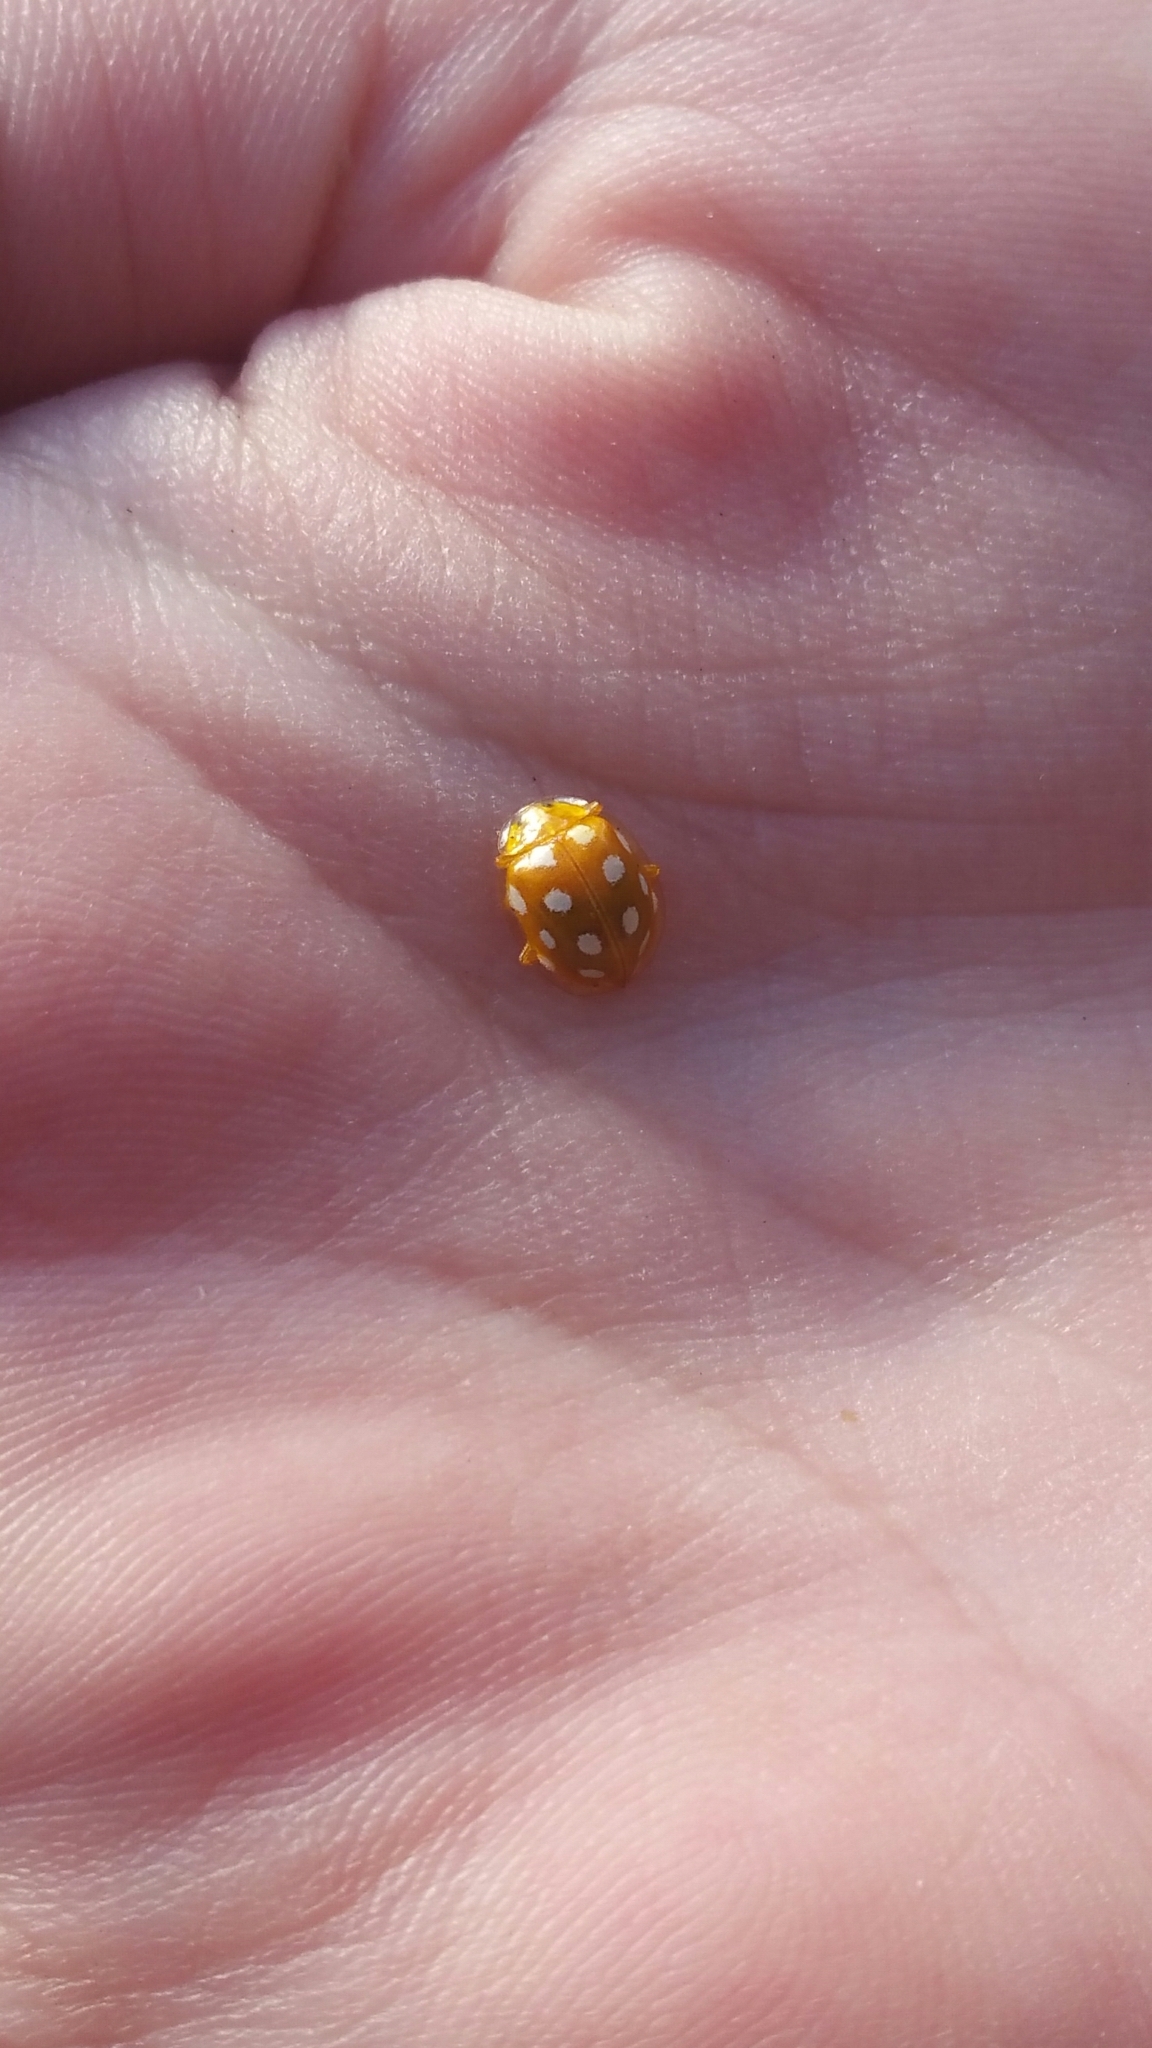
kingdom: Animalia
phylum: Arthropoda
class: Insecta
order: Coleoptera
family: Coccinellidae
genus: Halyzia
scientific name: Halyzia sedecimguttata
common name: Orange ladybird
